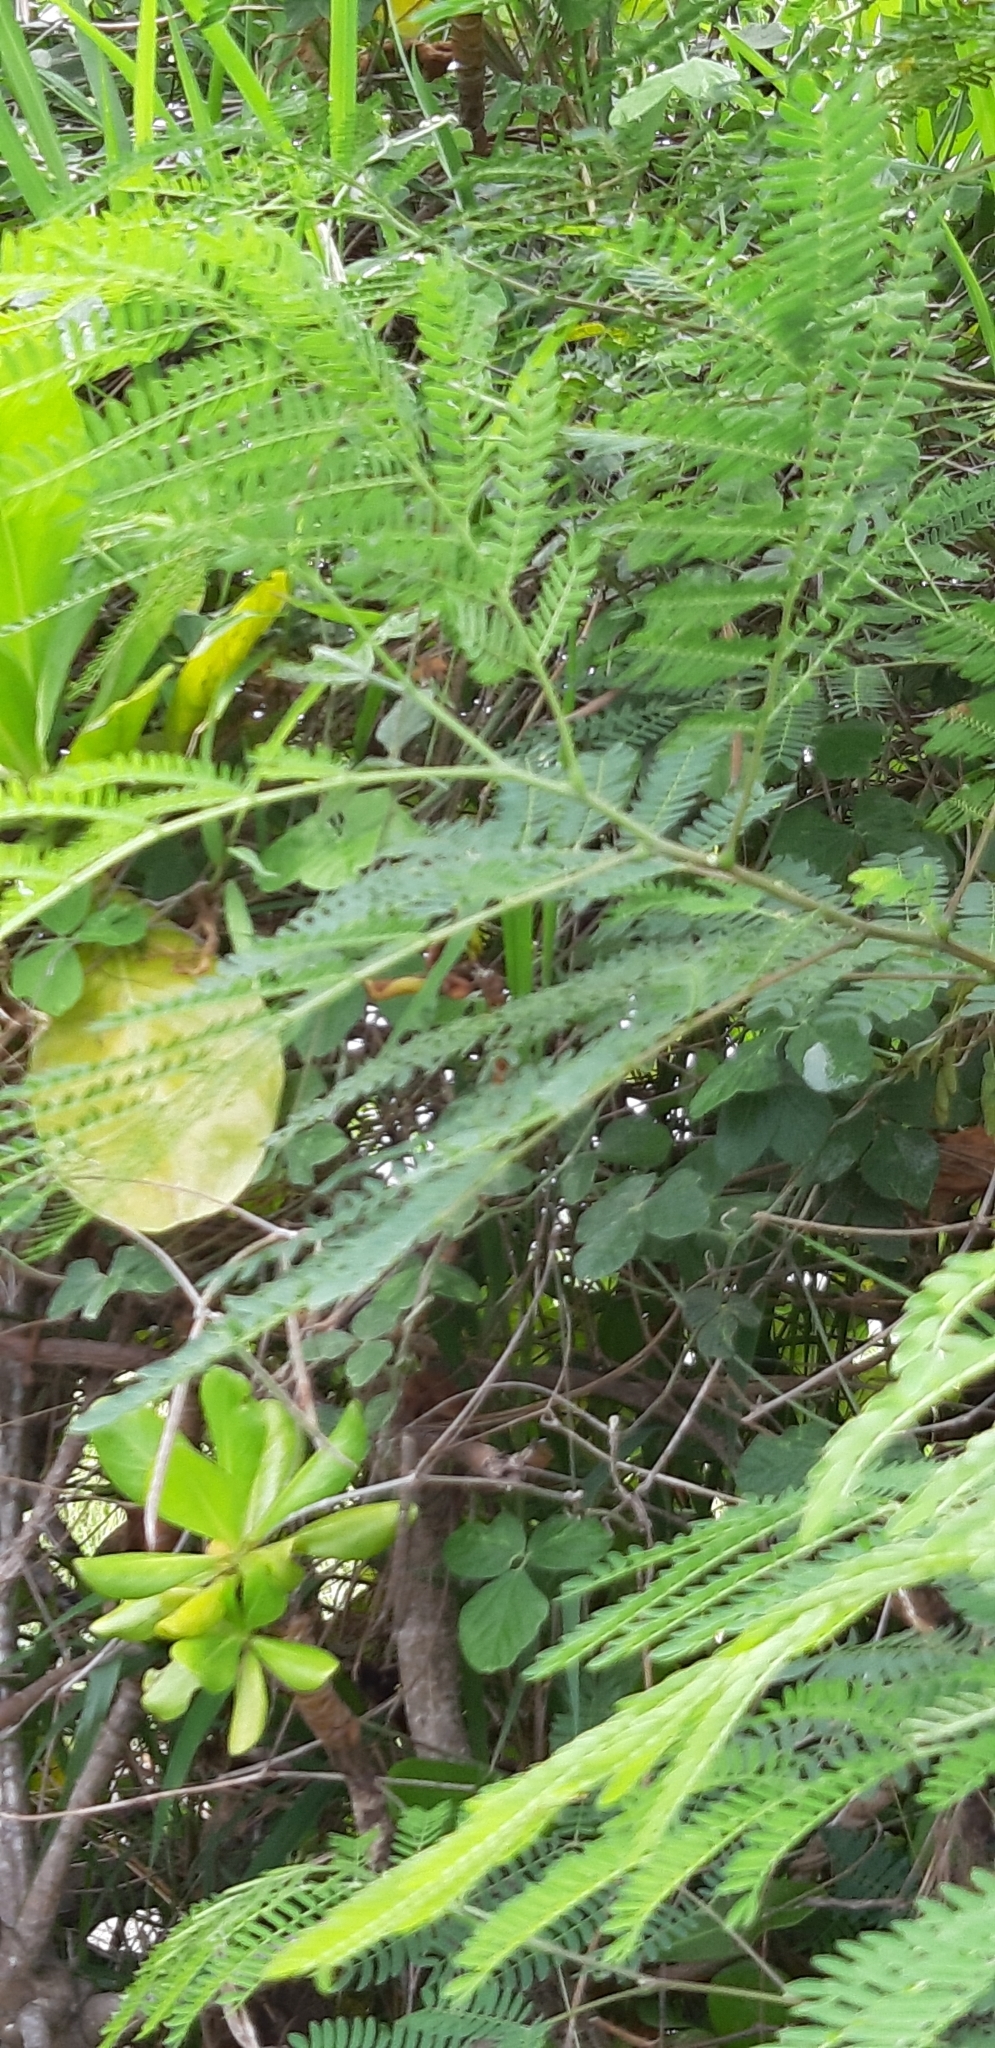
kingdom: Plantae
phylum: Tracheophyta
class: Magnoliopsida
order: Fabales
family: Fabaceae
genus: Leucaena
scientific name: Leucaena leucocephala
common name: White leadtree
